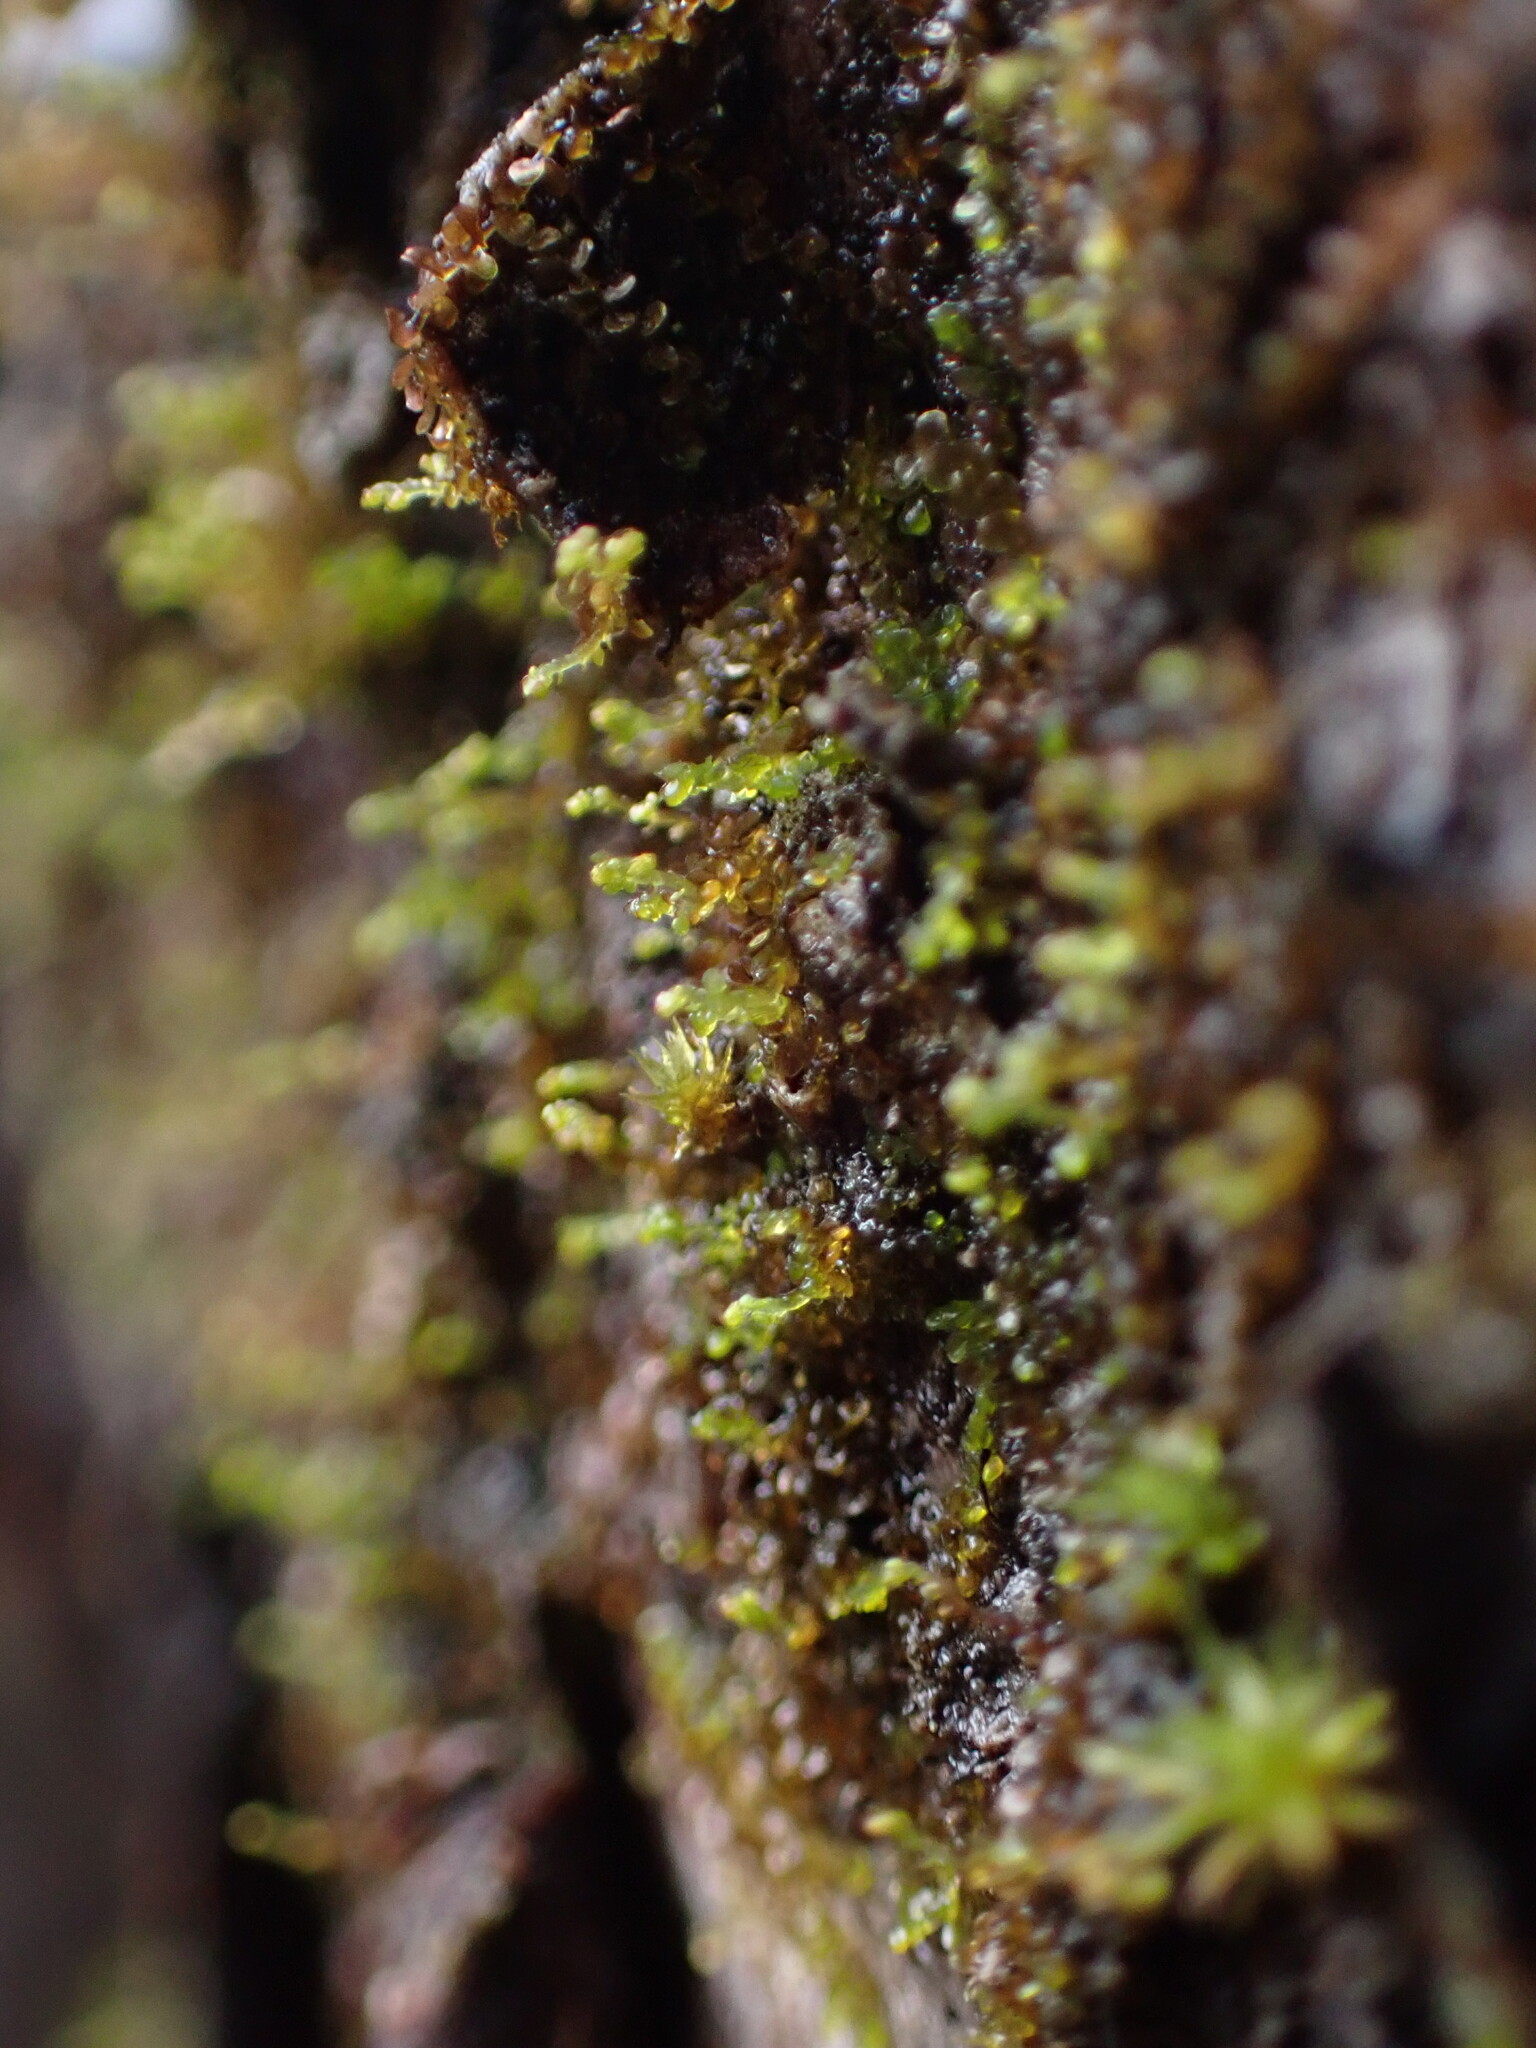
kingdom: Plantae
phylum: Marchantiophyta
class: Jungermanniopsida
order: Porellales
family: Frullaniaceae
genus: Frullania
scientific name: Frullania bolanderi
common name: Bolander s scalewort
